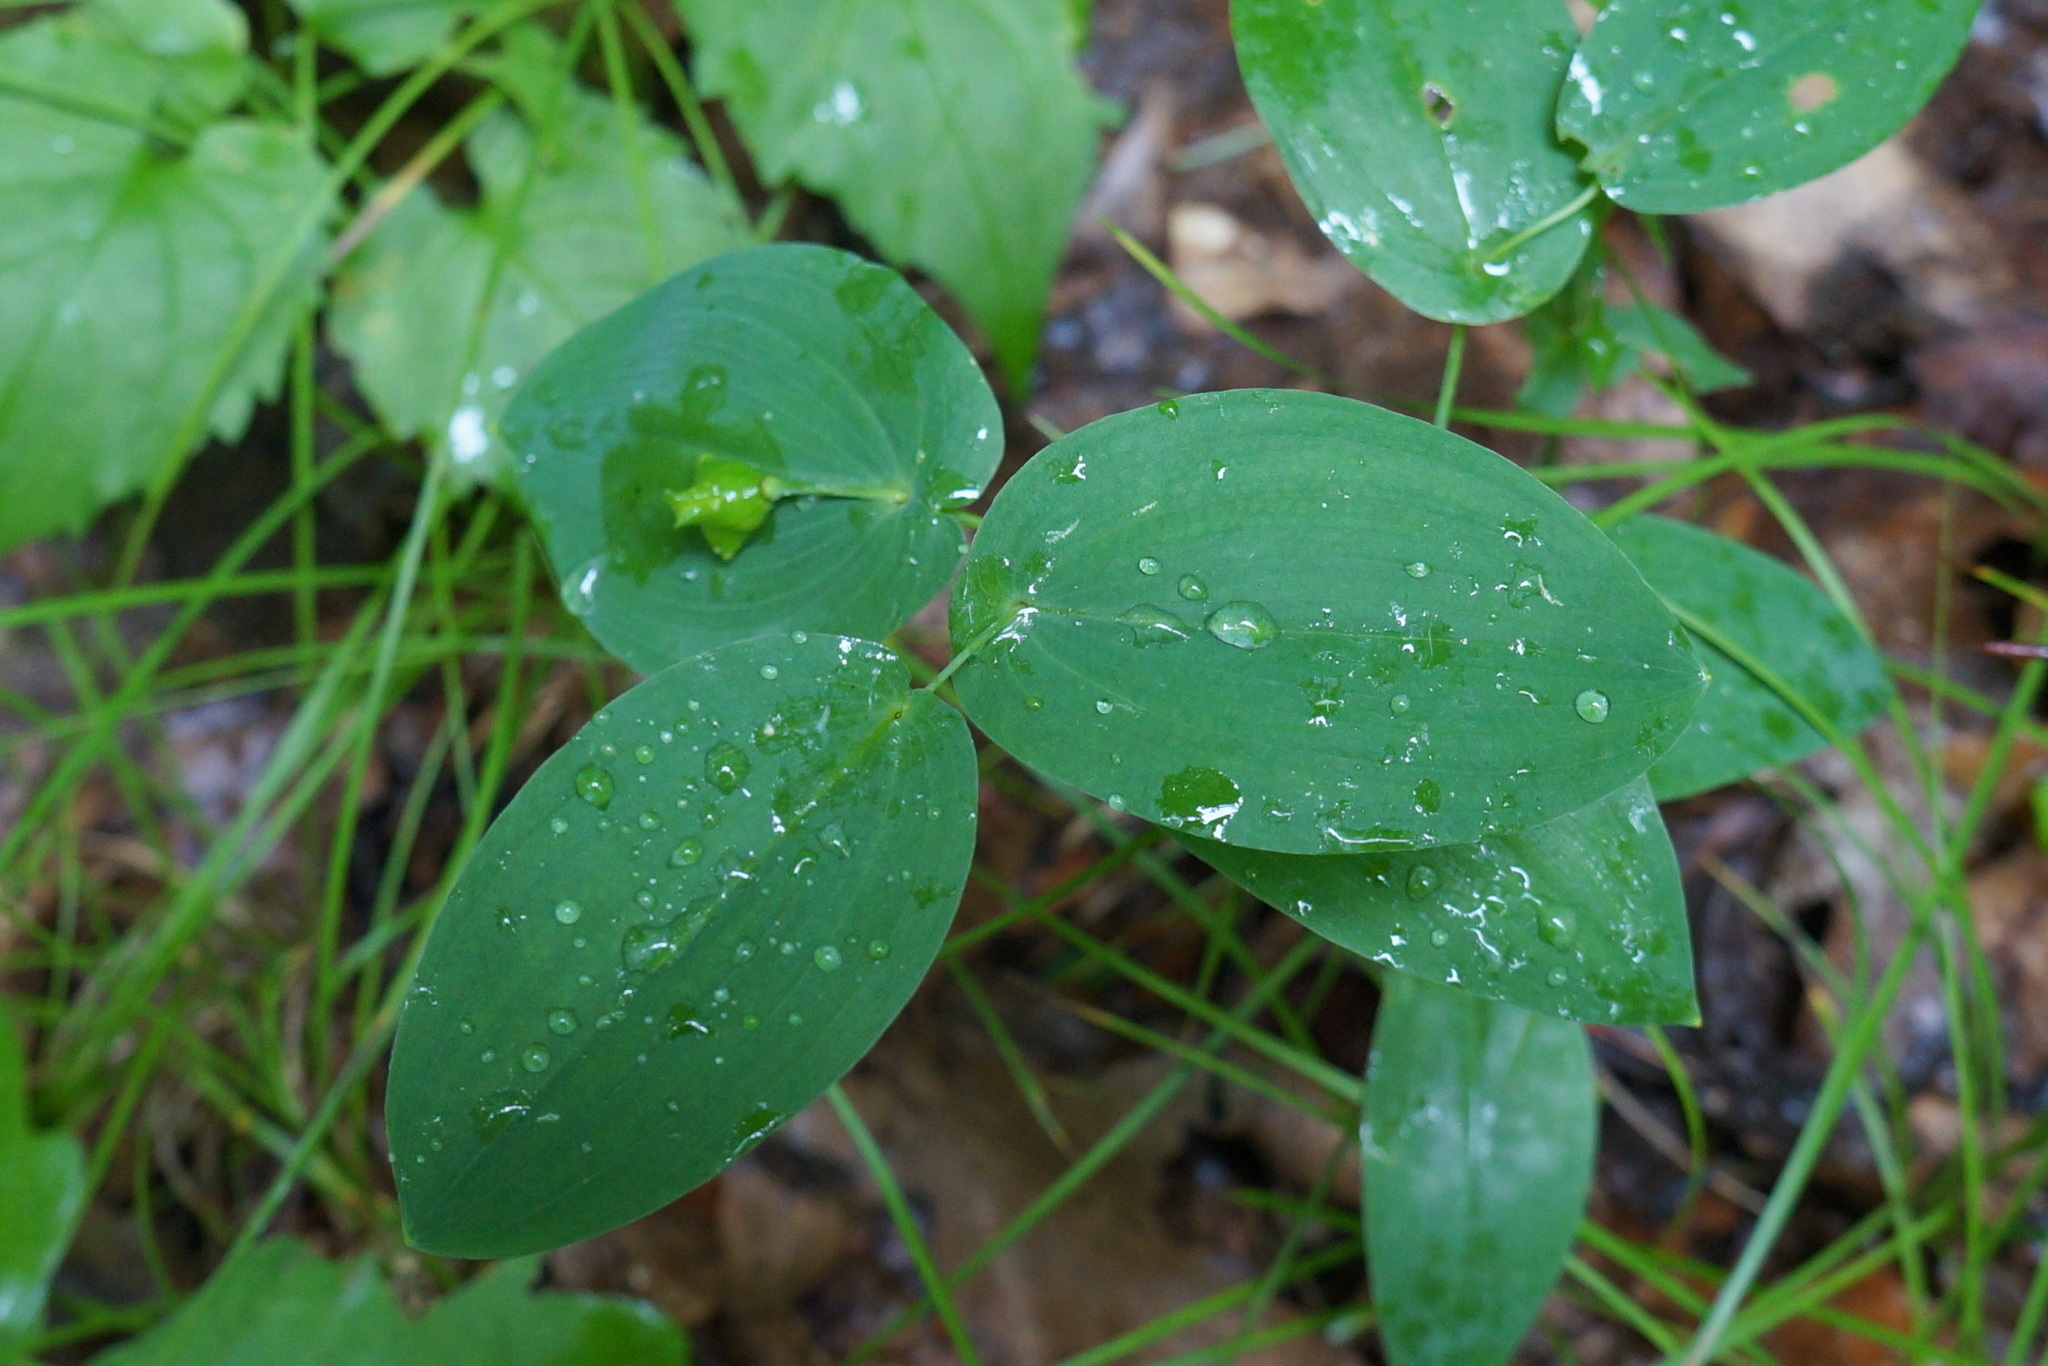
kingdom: Plantae
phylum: Tracheophyta
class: Liliopsida
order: Liliales
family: Colchicaceae
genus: Uvularia
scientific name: Uvularia perfoliata
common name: Perfoliate bellwort
